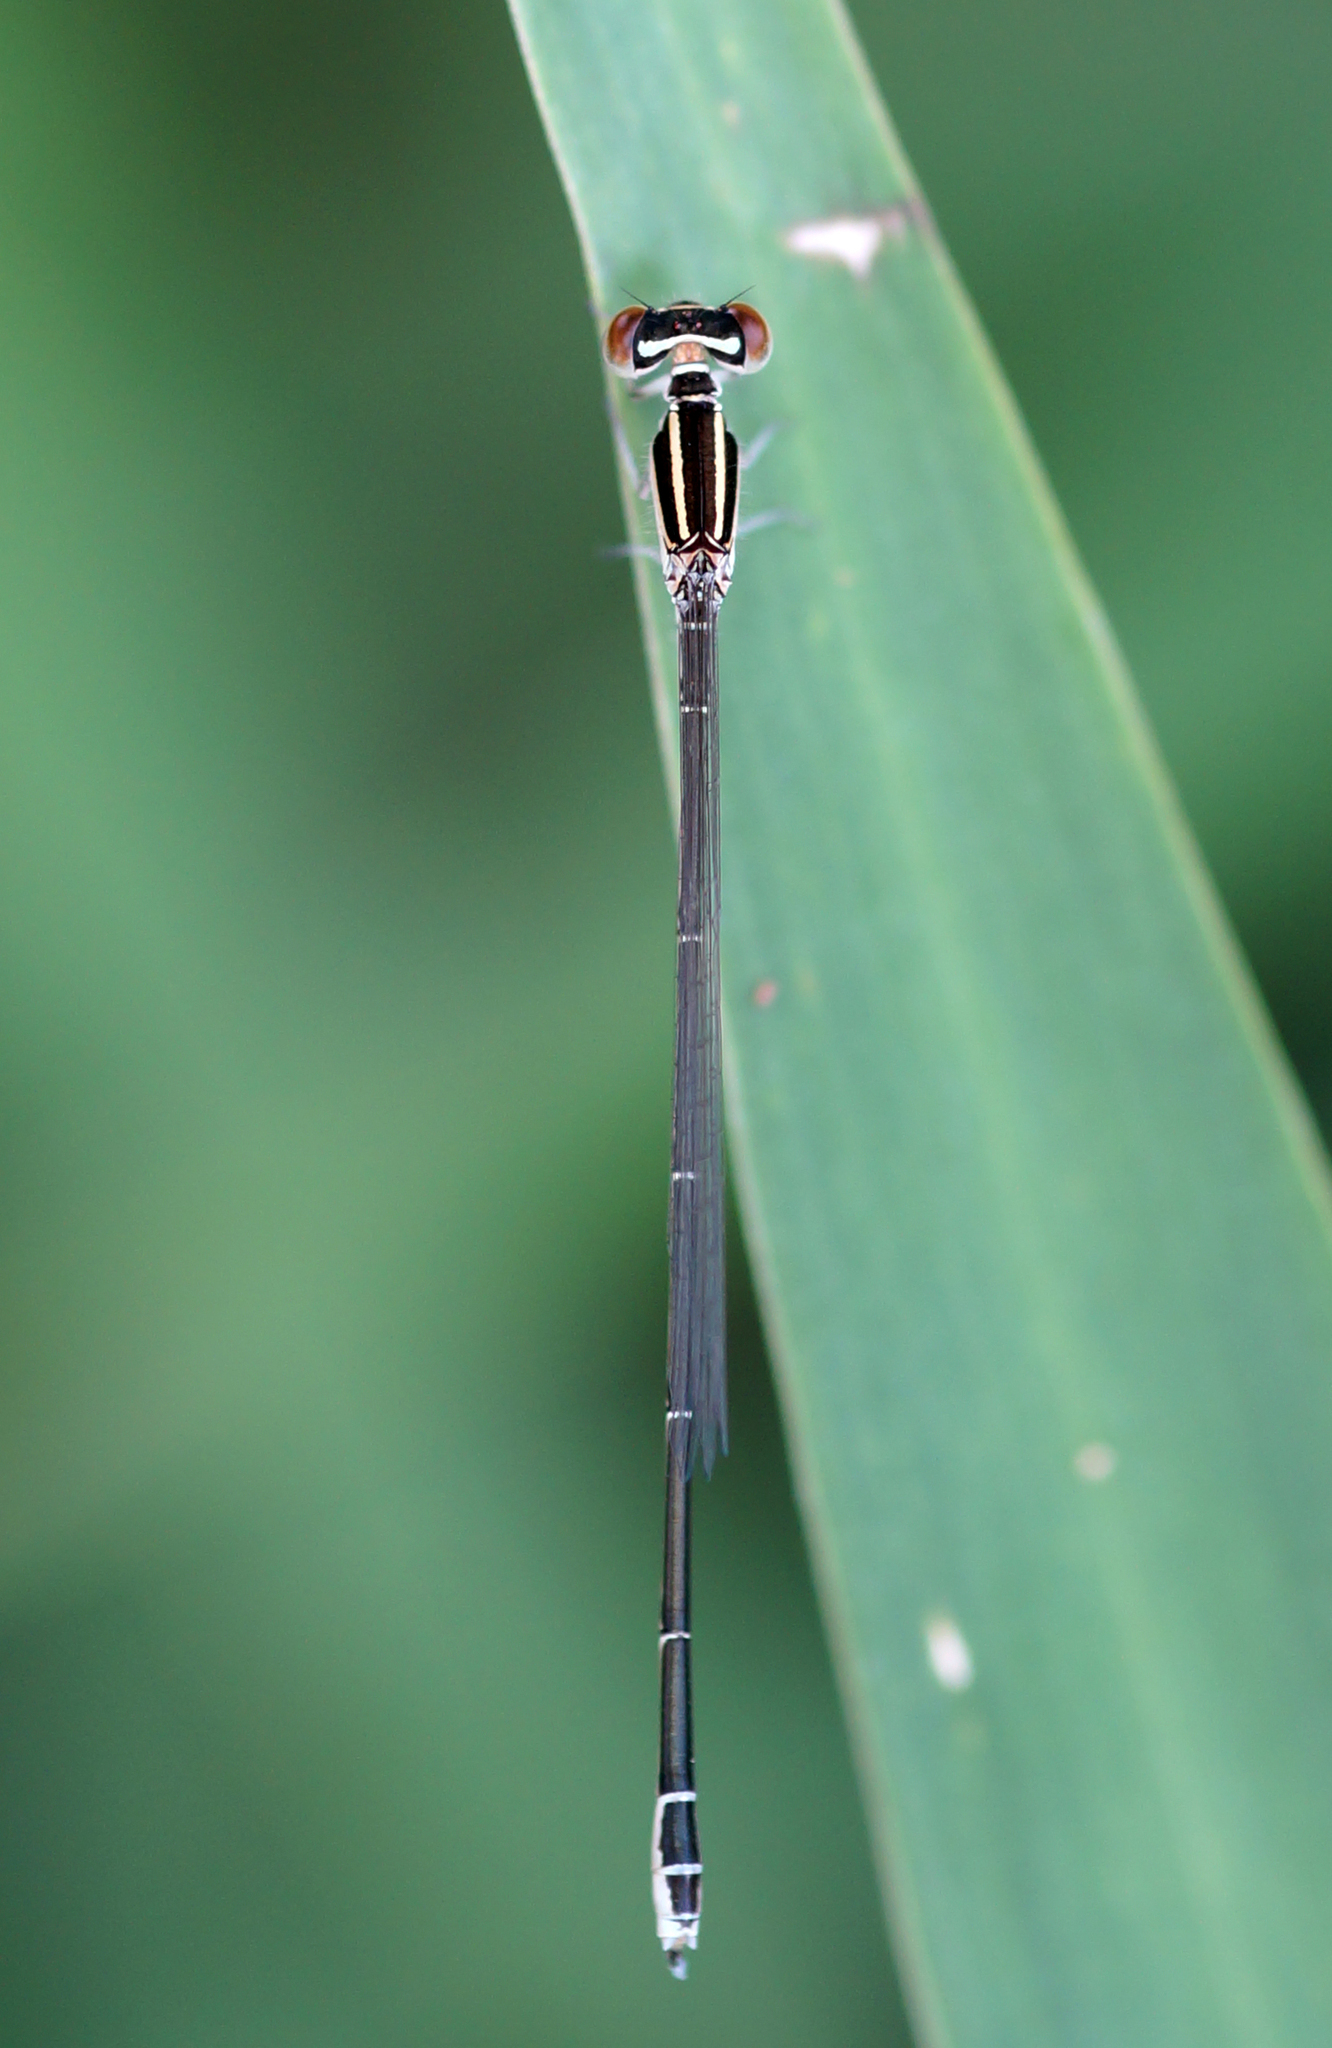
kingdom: Animalia
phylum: Arthropoda
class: Insecta
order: Odonata
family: Coenagrionidae
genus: Aciagrion
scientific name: Aciagrion borneense
